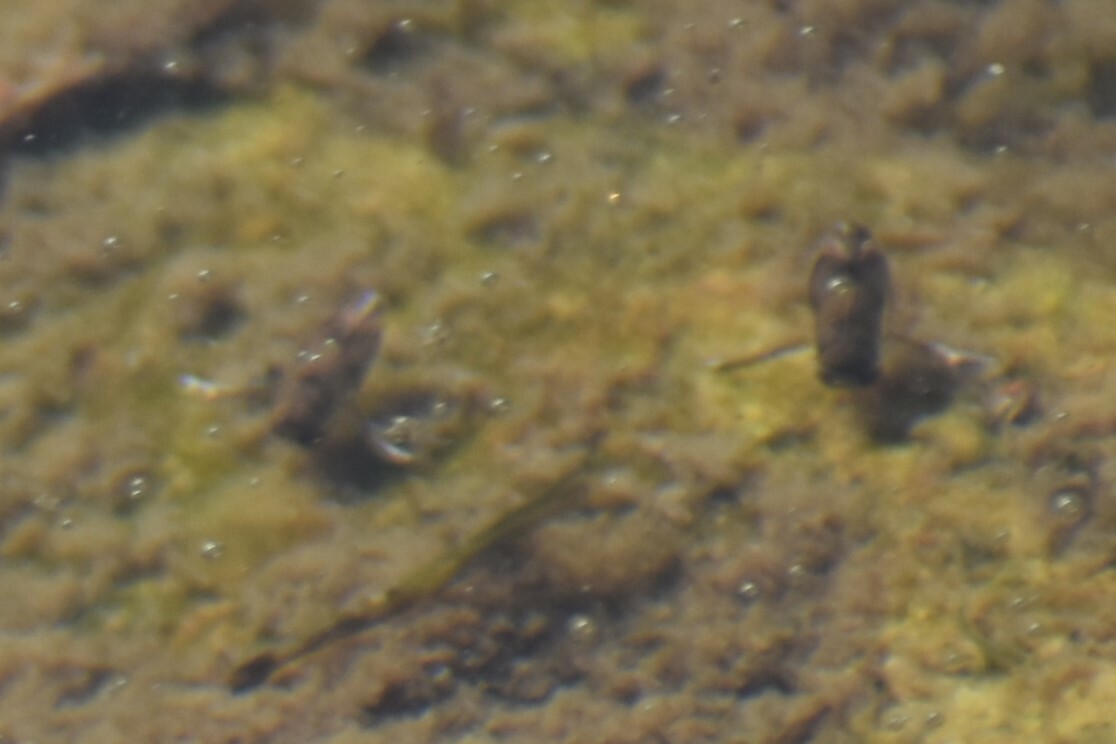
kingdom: Animalia
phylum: Arthropoda
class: Insecta
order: Hemiptera
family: Corixidae
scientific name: Corixidae
